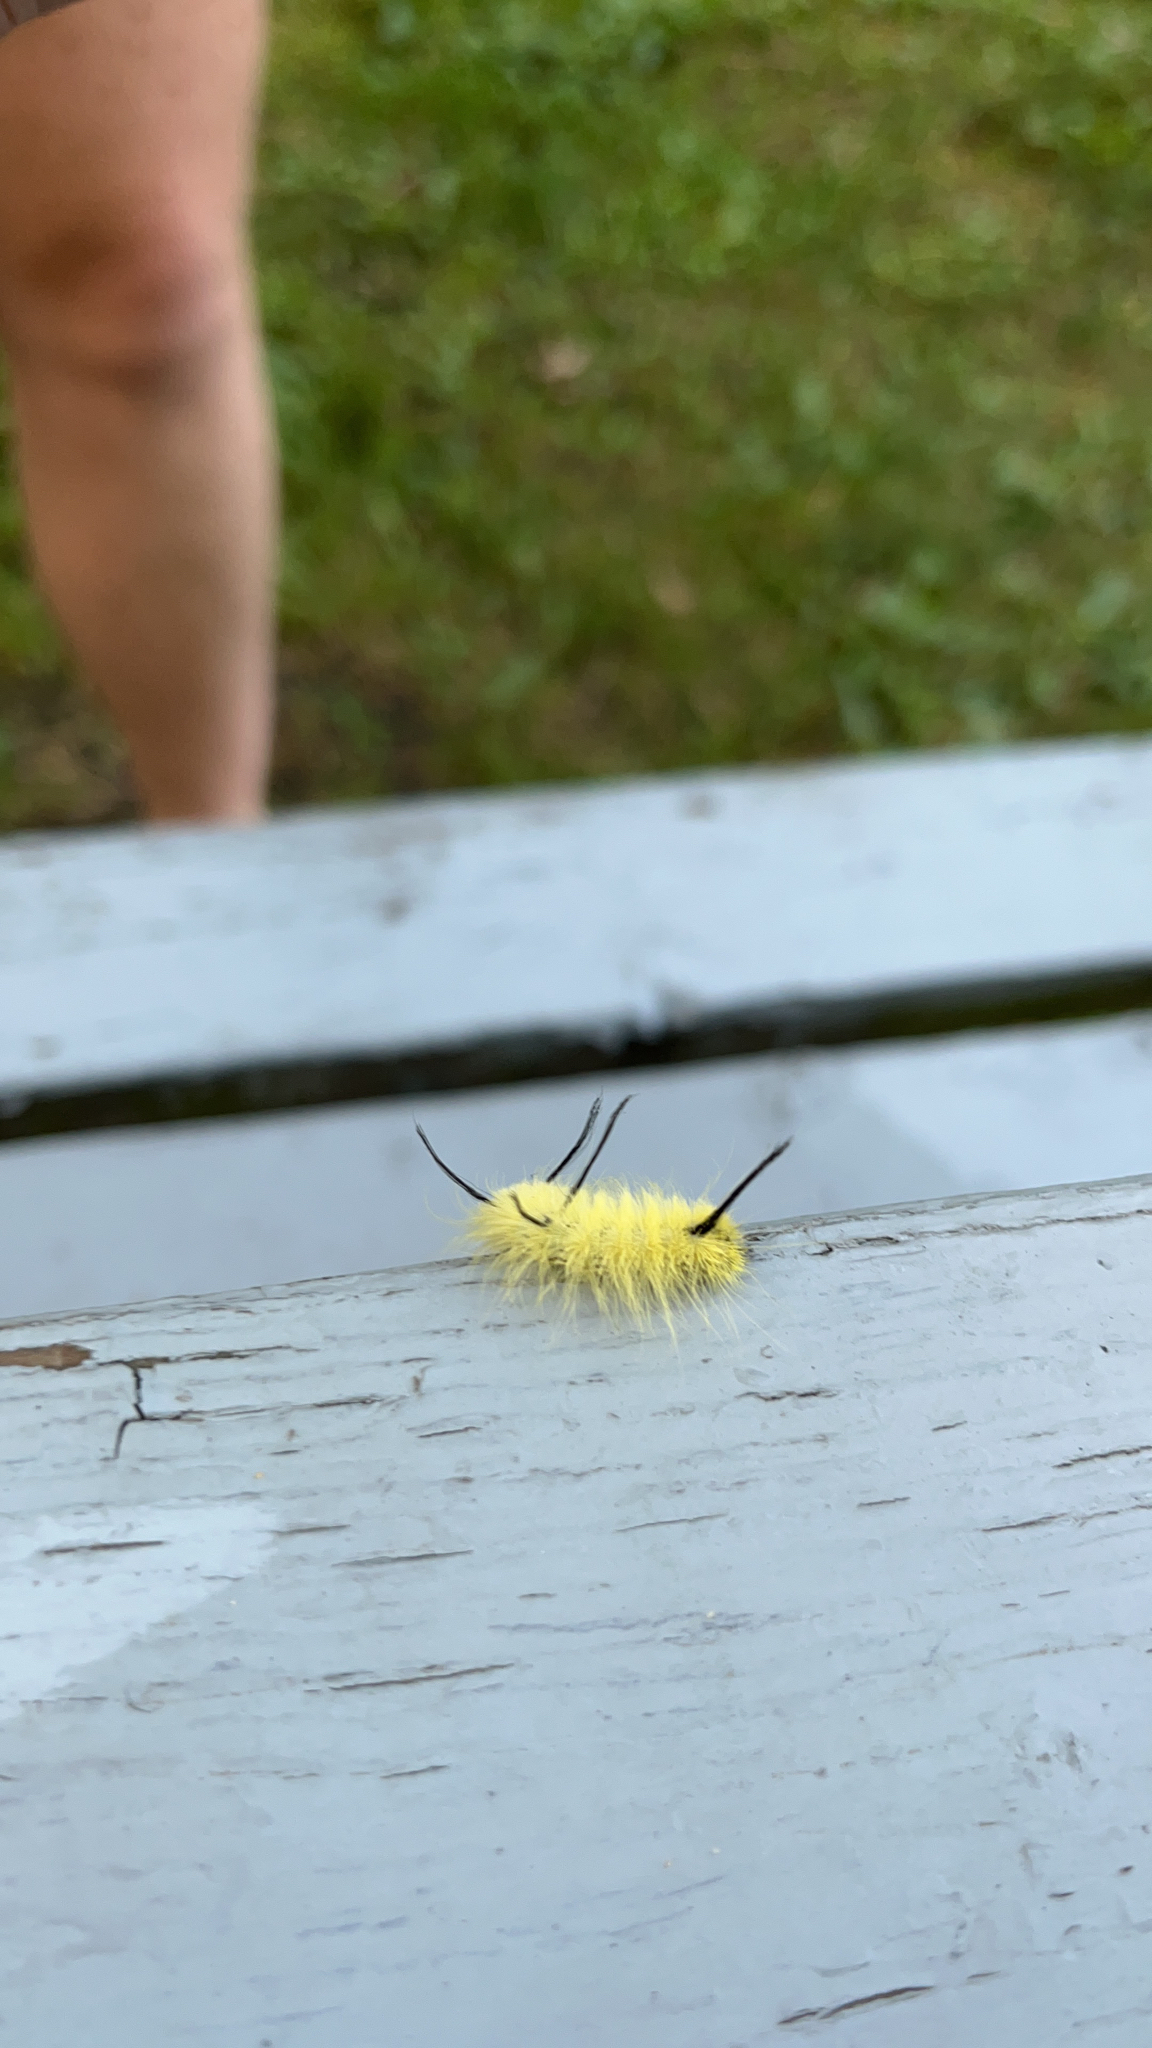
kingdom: Animalia
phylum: Arthropoda
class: Insecta
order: Lepidoptera
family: Noctuidae
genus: Acronicta
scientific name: Acronicta americana
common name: American dagger
